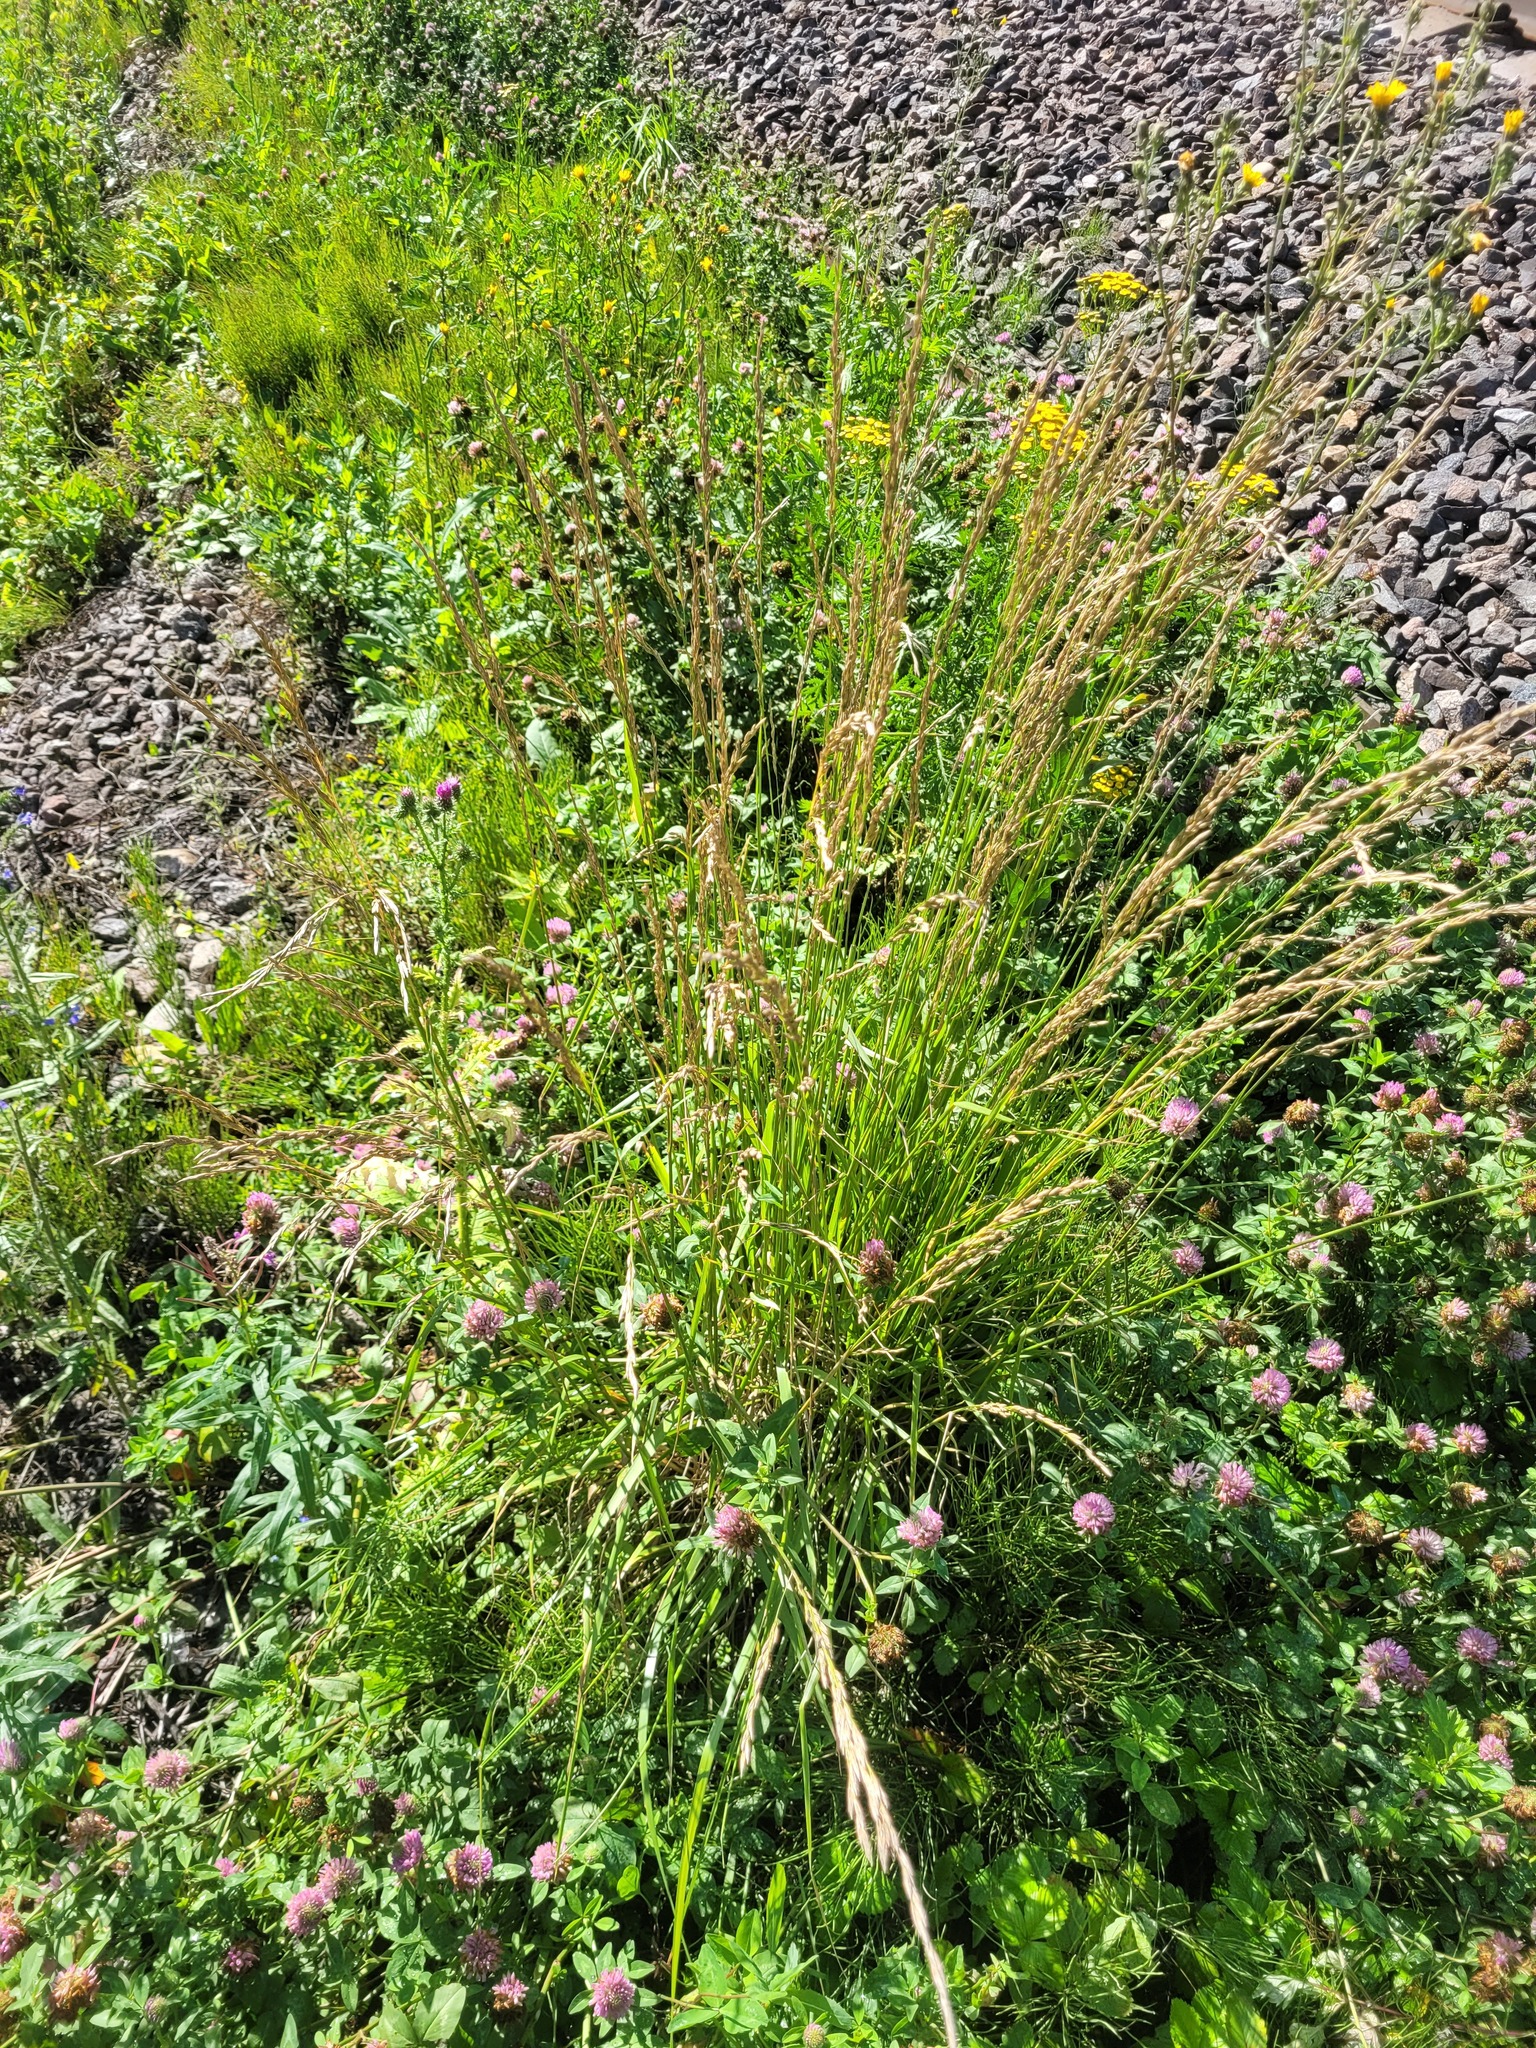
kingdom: Plantae
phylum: Tracheophyta
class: Liliopsida
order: Poales
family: Poaceae
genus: Lolium
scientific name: Lolium arundinaceum
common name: Reed fescue
